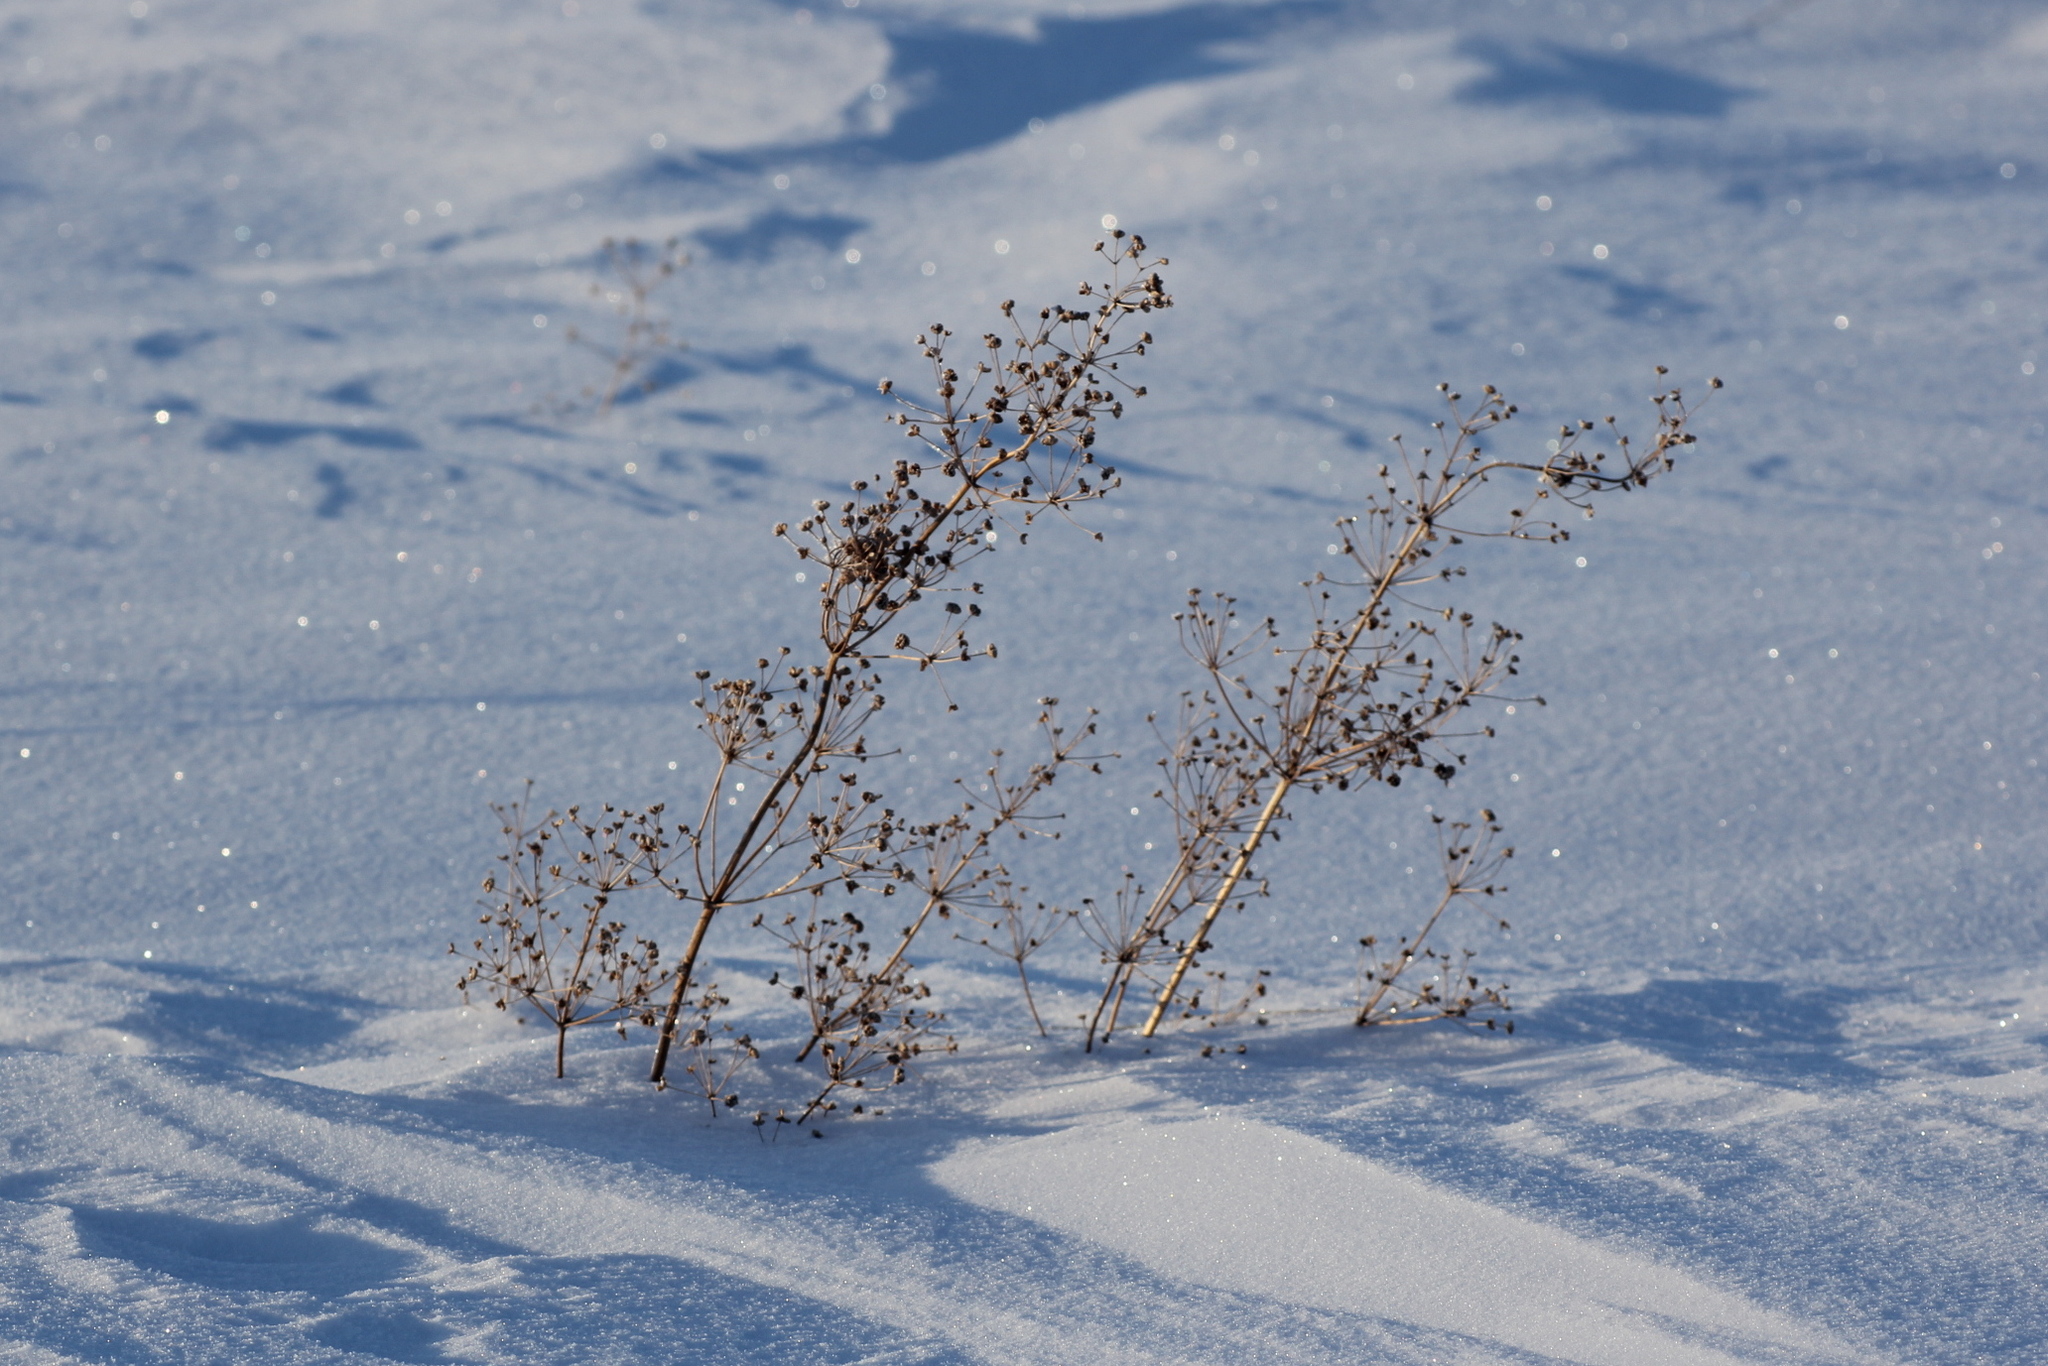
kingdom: Plantae
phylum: Tracheophyta
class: Liliopsida
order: Alismatales
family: Alismataceae
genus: Alisma
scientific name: Alisma plantago-aquatica
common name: Water-plantain
